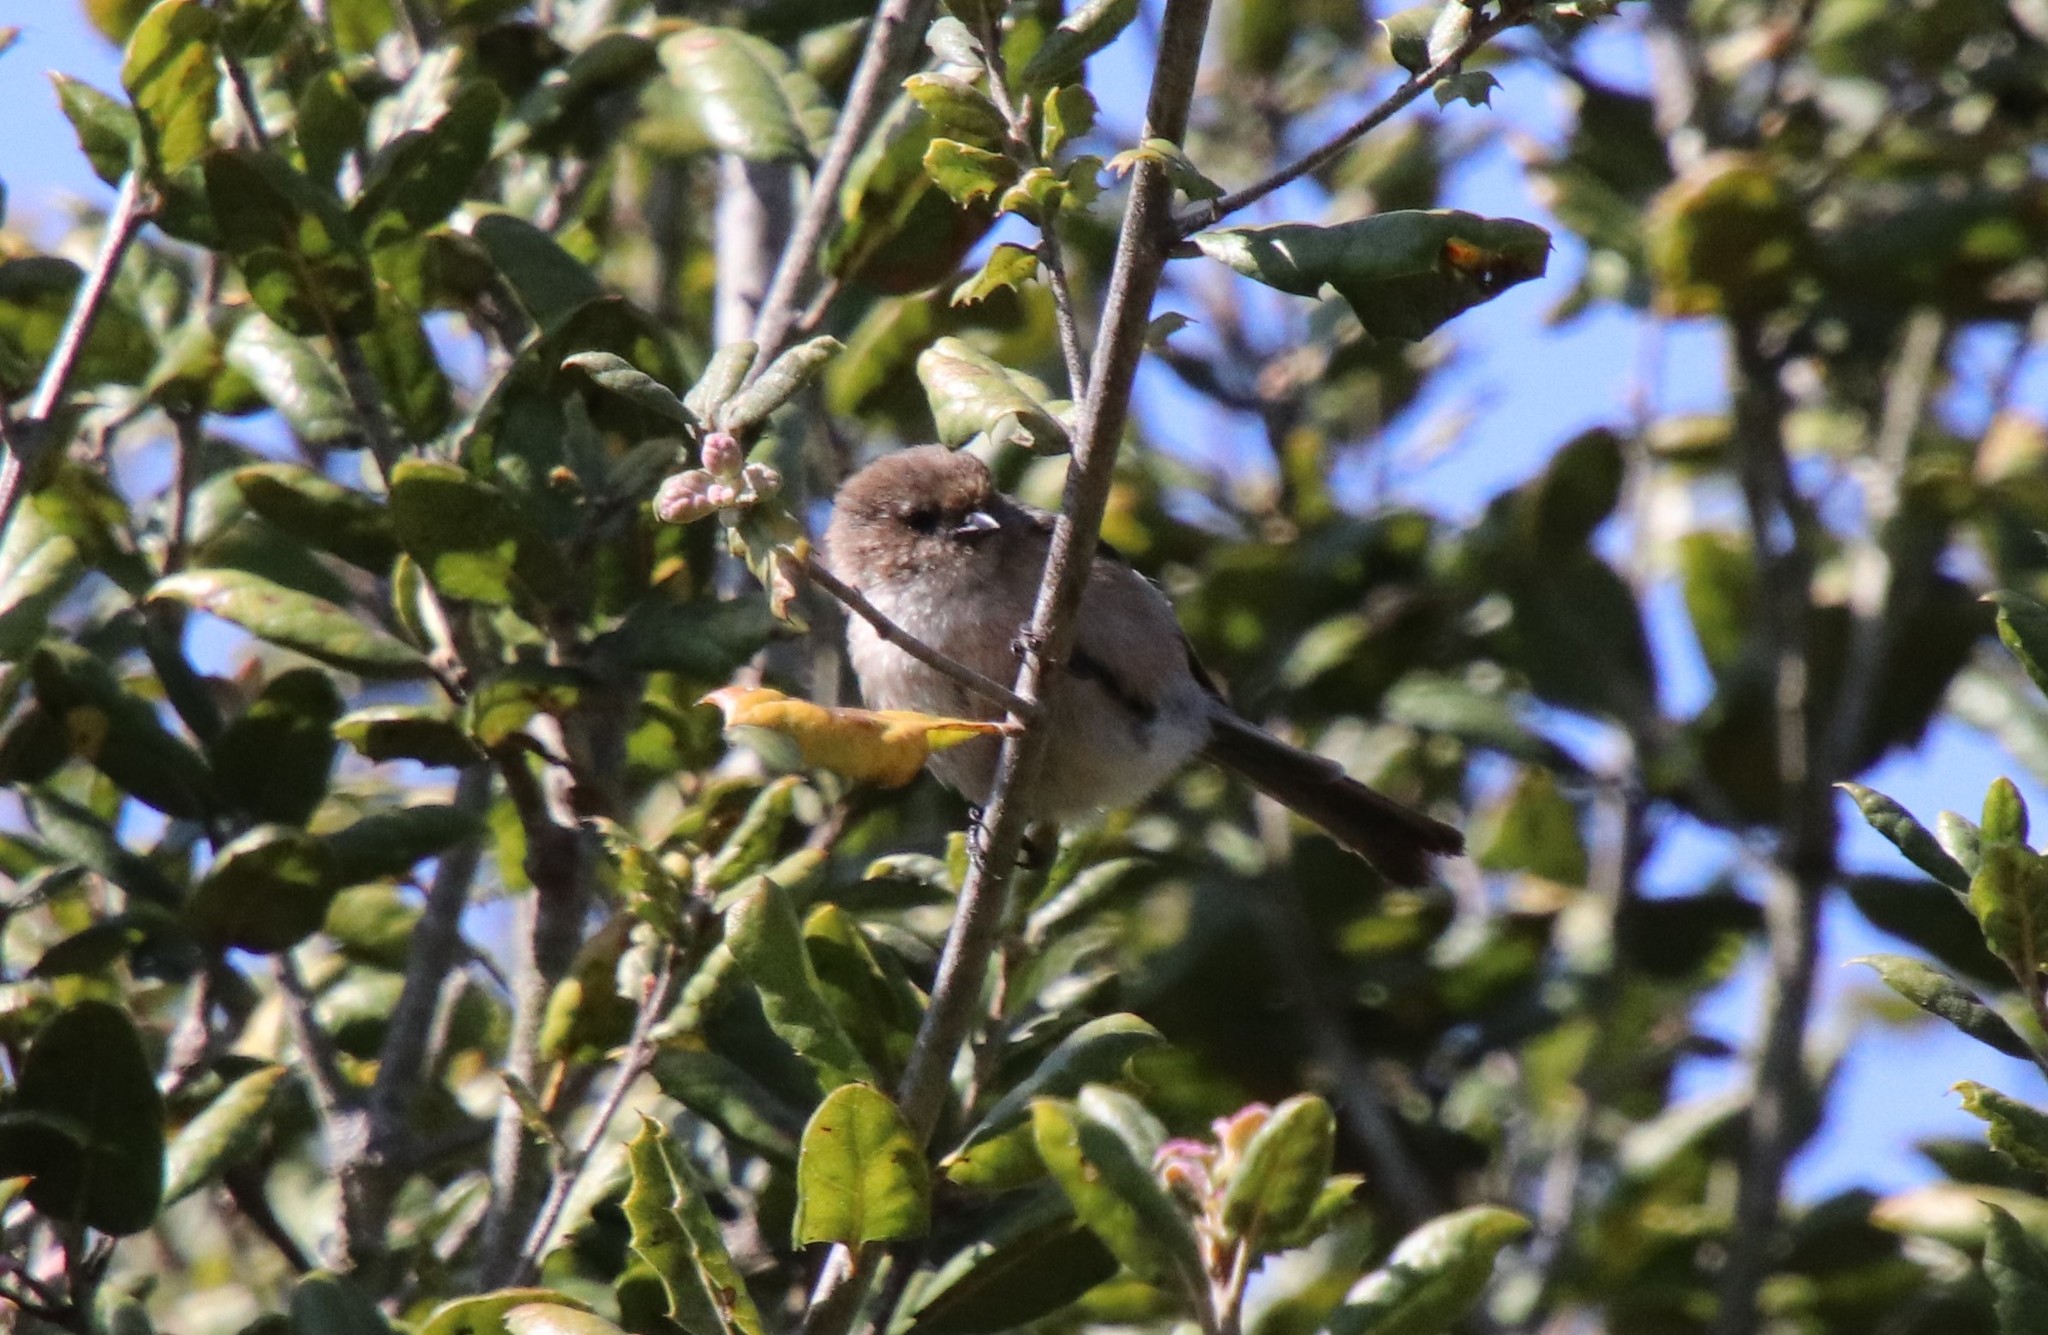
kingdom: Animalia
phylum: Chordata
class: Aves
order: Passeriformes
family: Aegithalidae
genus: Psaltriparus
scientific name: Psaltriparus minimus
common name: American bushtit
